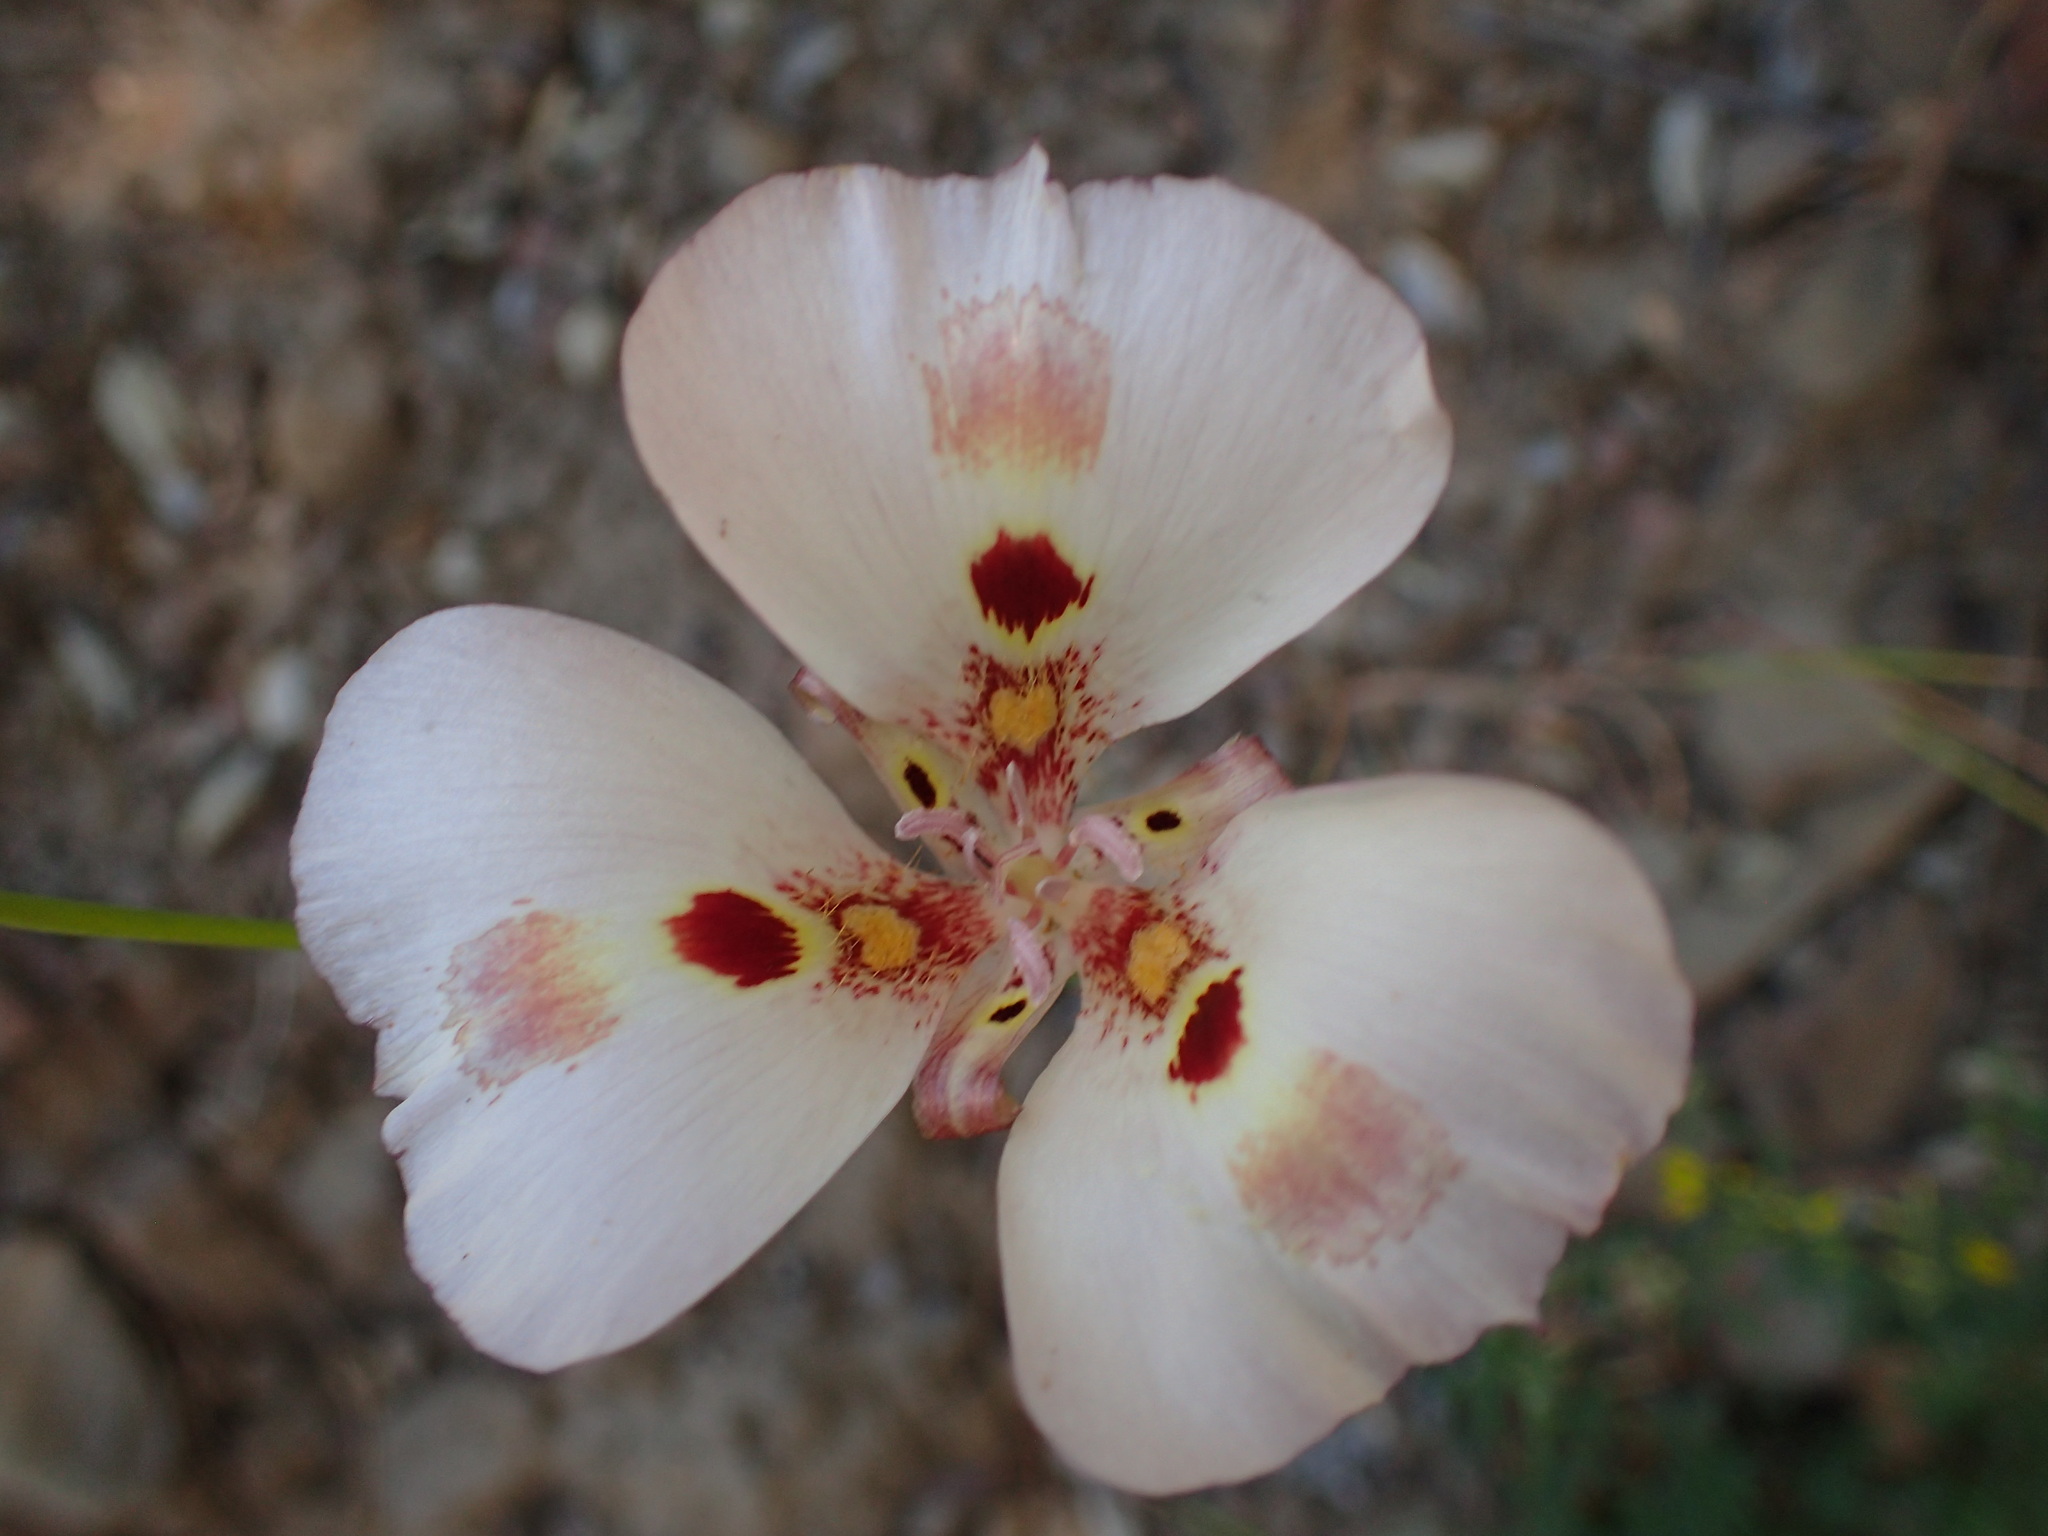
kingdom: Plantae
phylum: Tracheophyta
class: Liliopsida
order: Liliales
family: Liliaceae
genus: Calochortus
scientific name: Calochortus venustus
